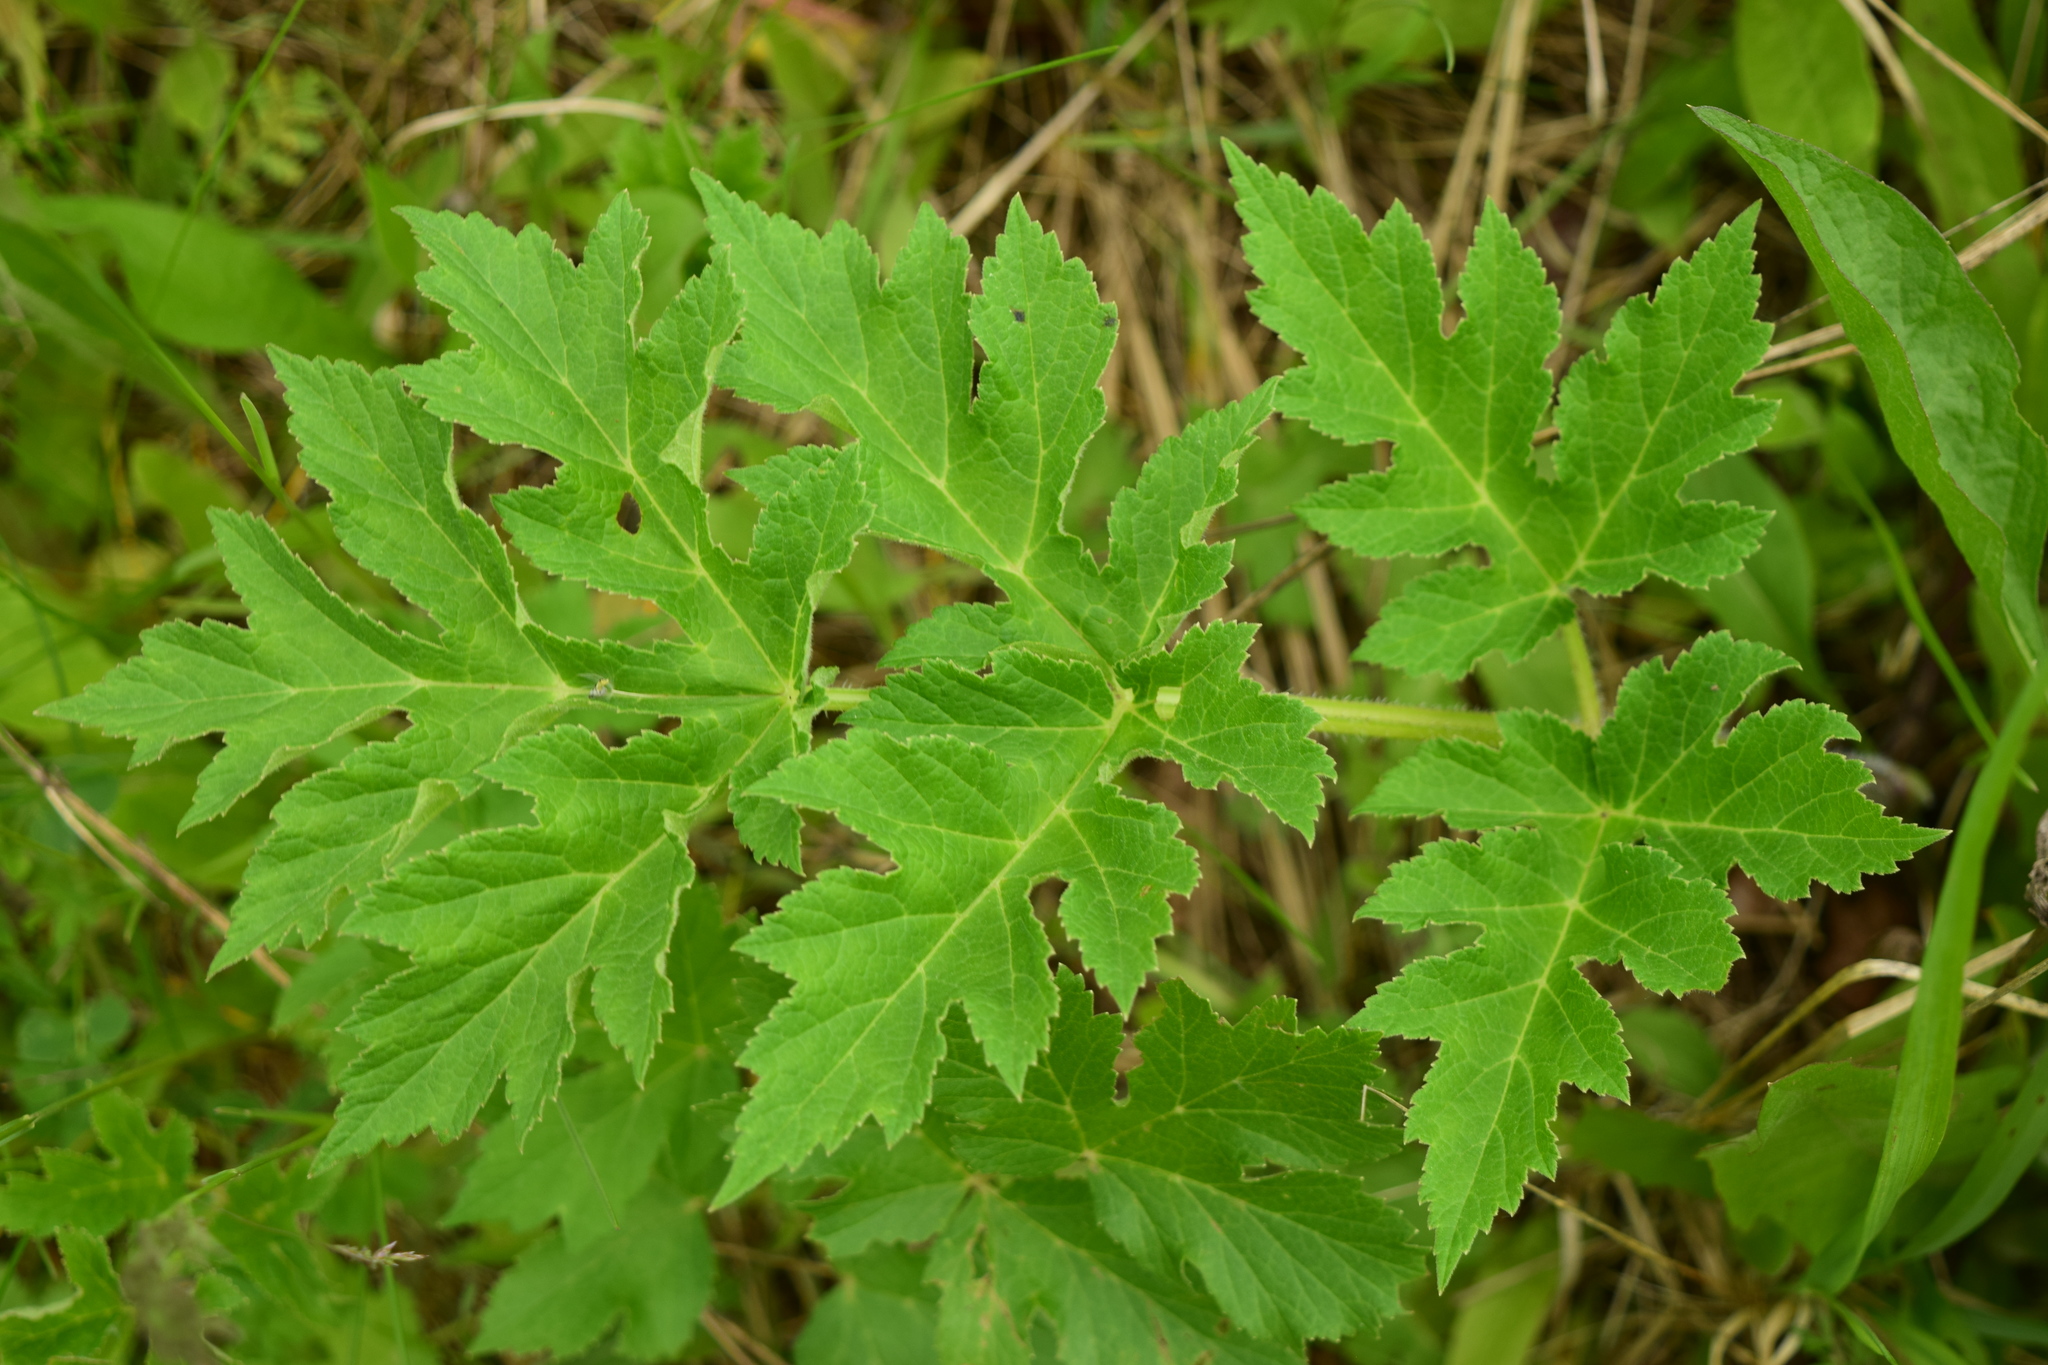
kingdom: Plantae
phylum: Tracheophyta
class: Magnoliopsida
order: Apiales
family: Apiaceae
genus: Heracleum
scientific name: Heracleum sphondylium
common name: Hogweed
